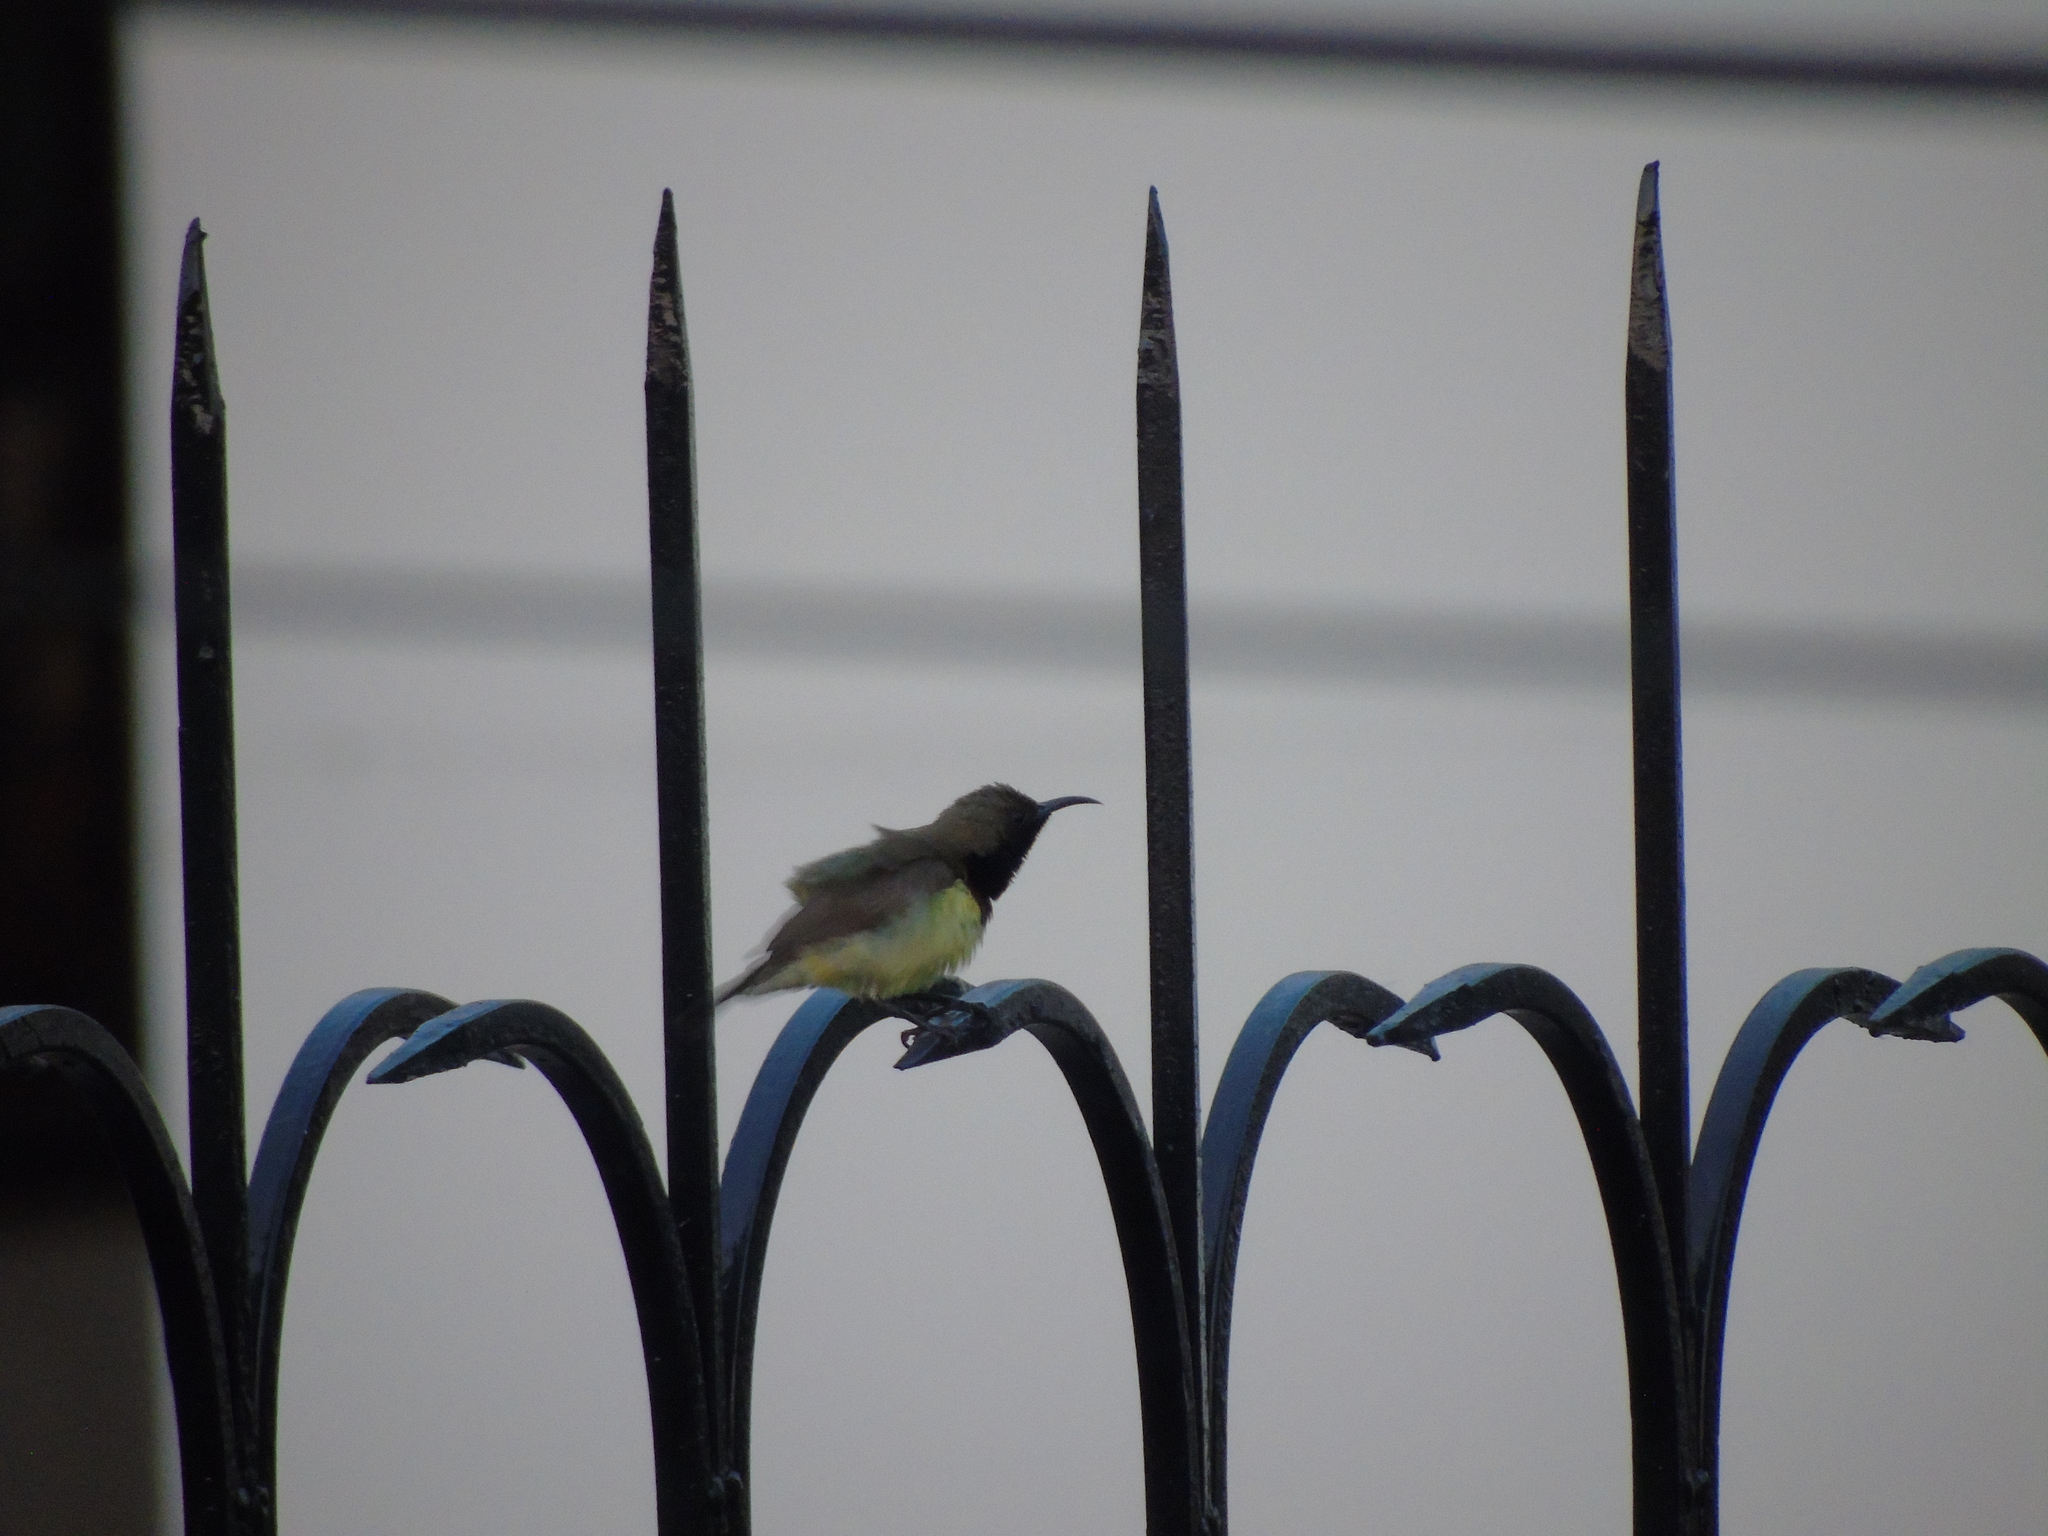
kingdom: Animalia
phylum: Chordata
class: Aves
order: Passeriformes
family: Nectariniidae
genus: Cinnyris
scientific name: Cinnyris
